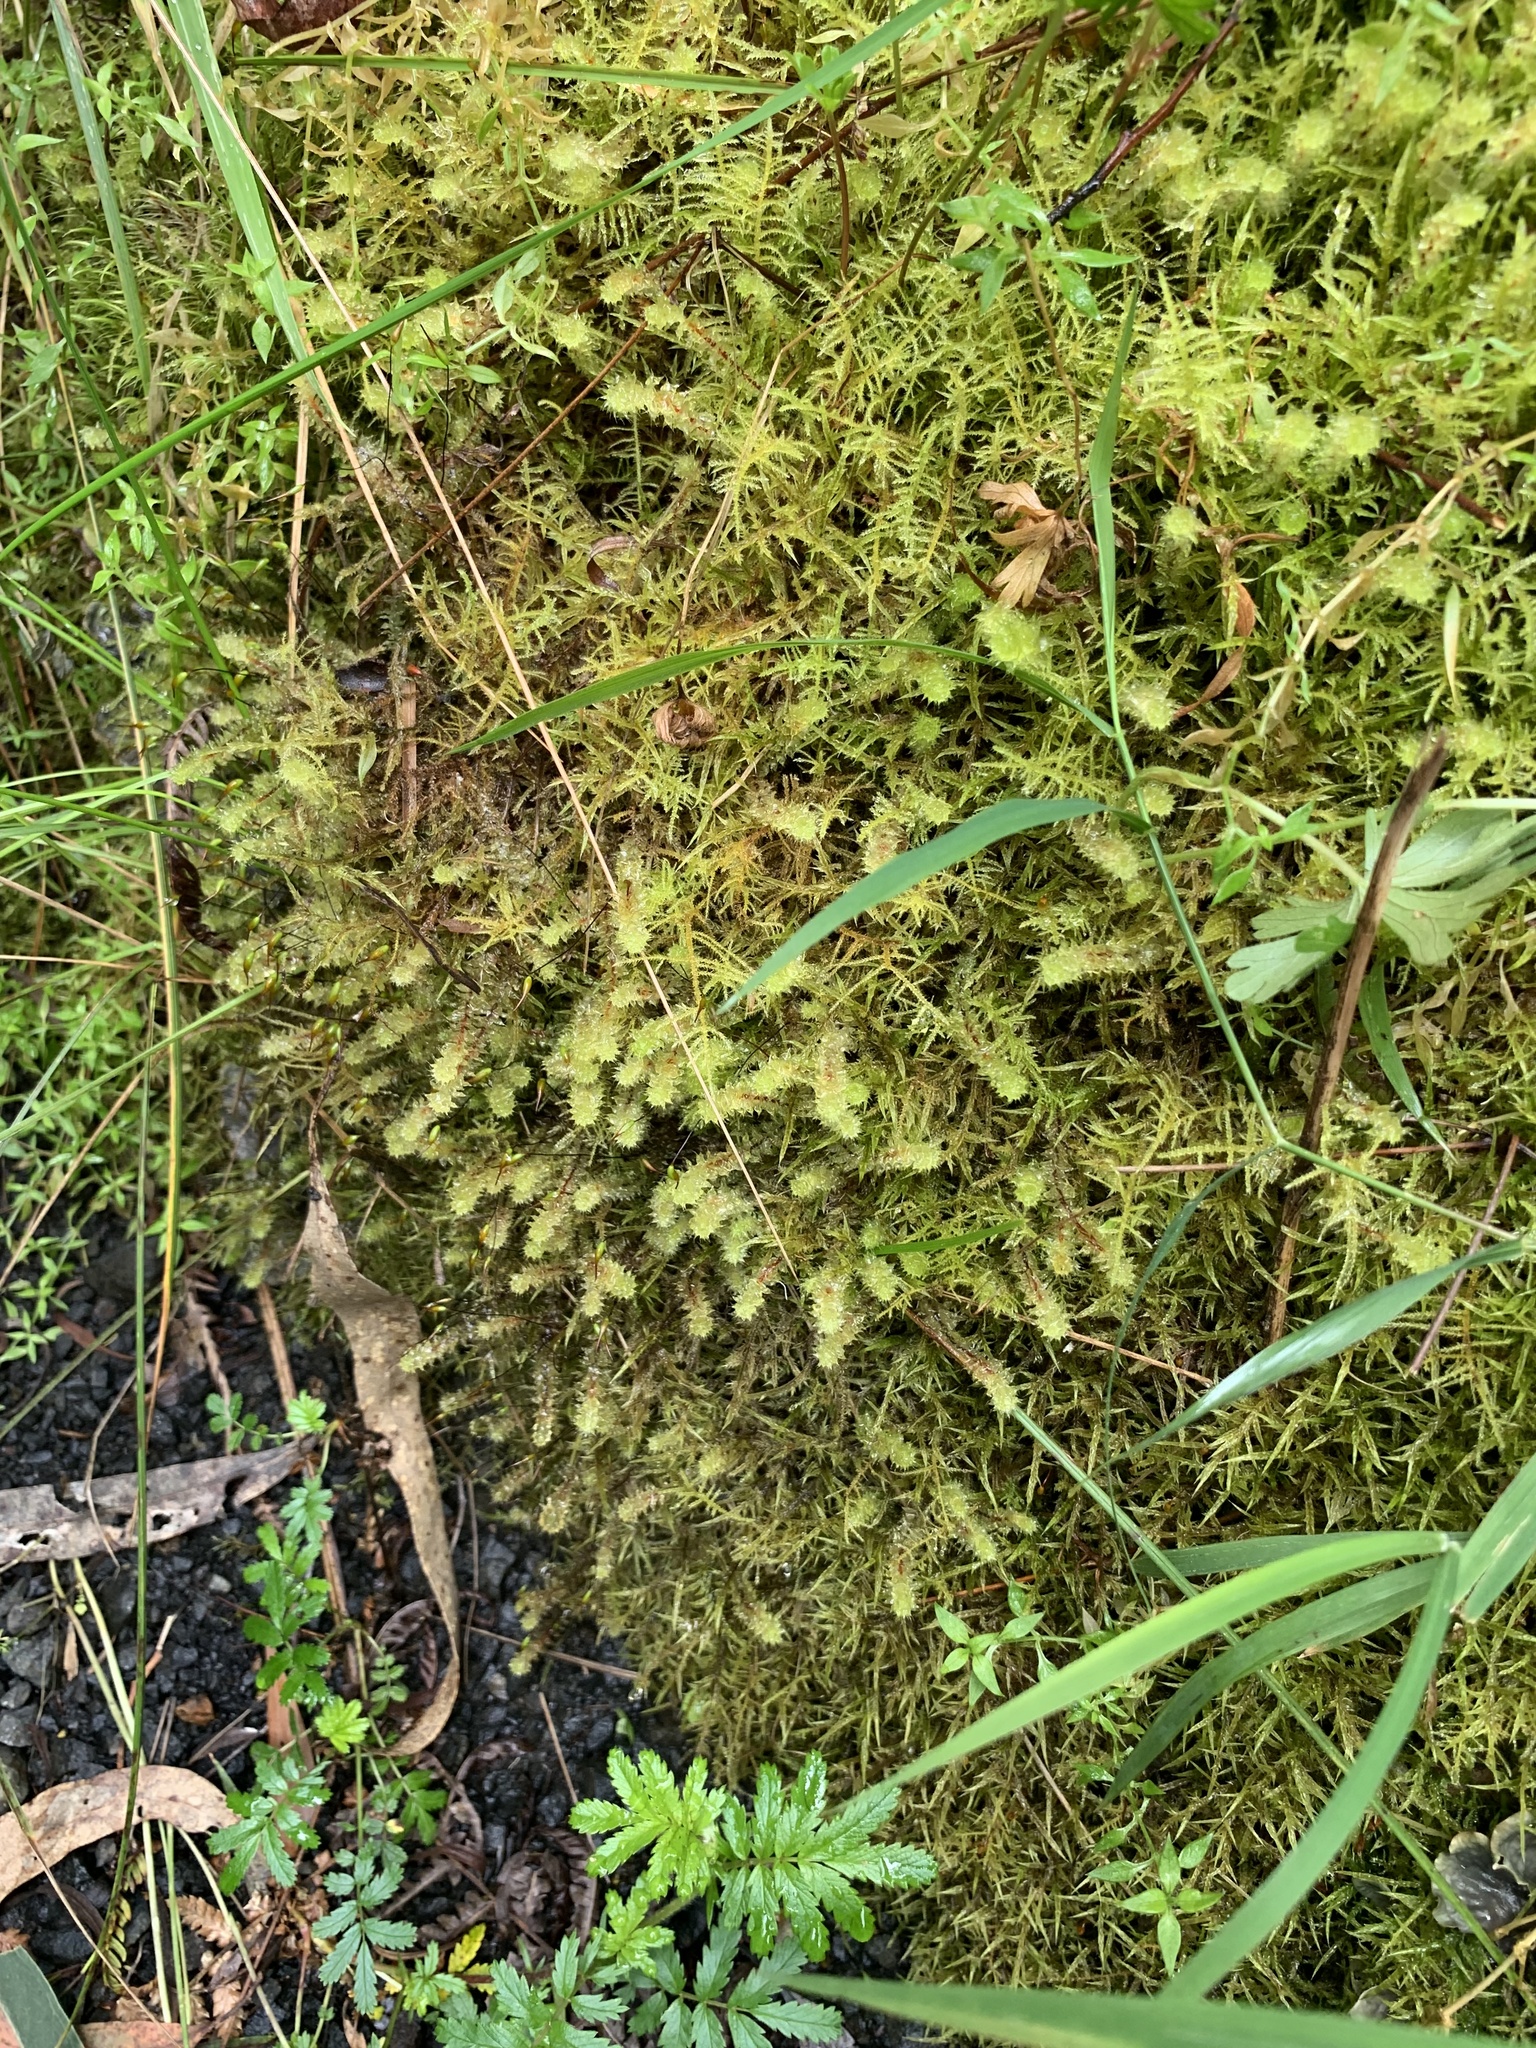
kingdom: Plantae
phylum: Bryophyta
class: Bryopsida
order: Ptychomniales
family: Ptychomniaceae
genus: Ptychomnion
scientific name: Ptychomnion aciculare
